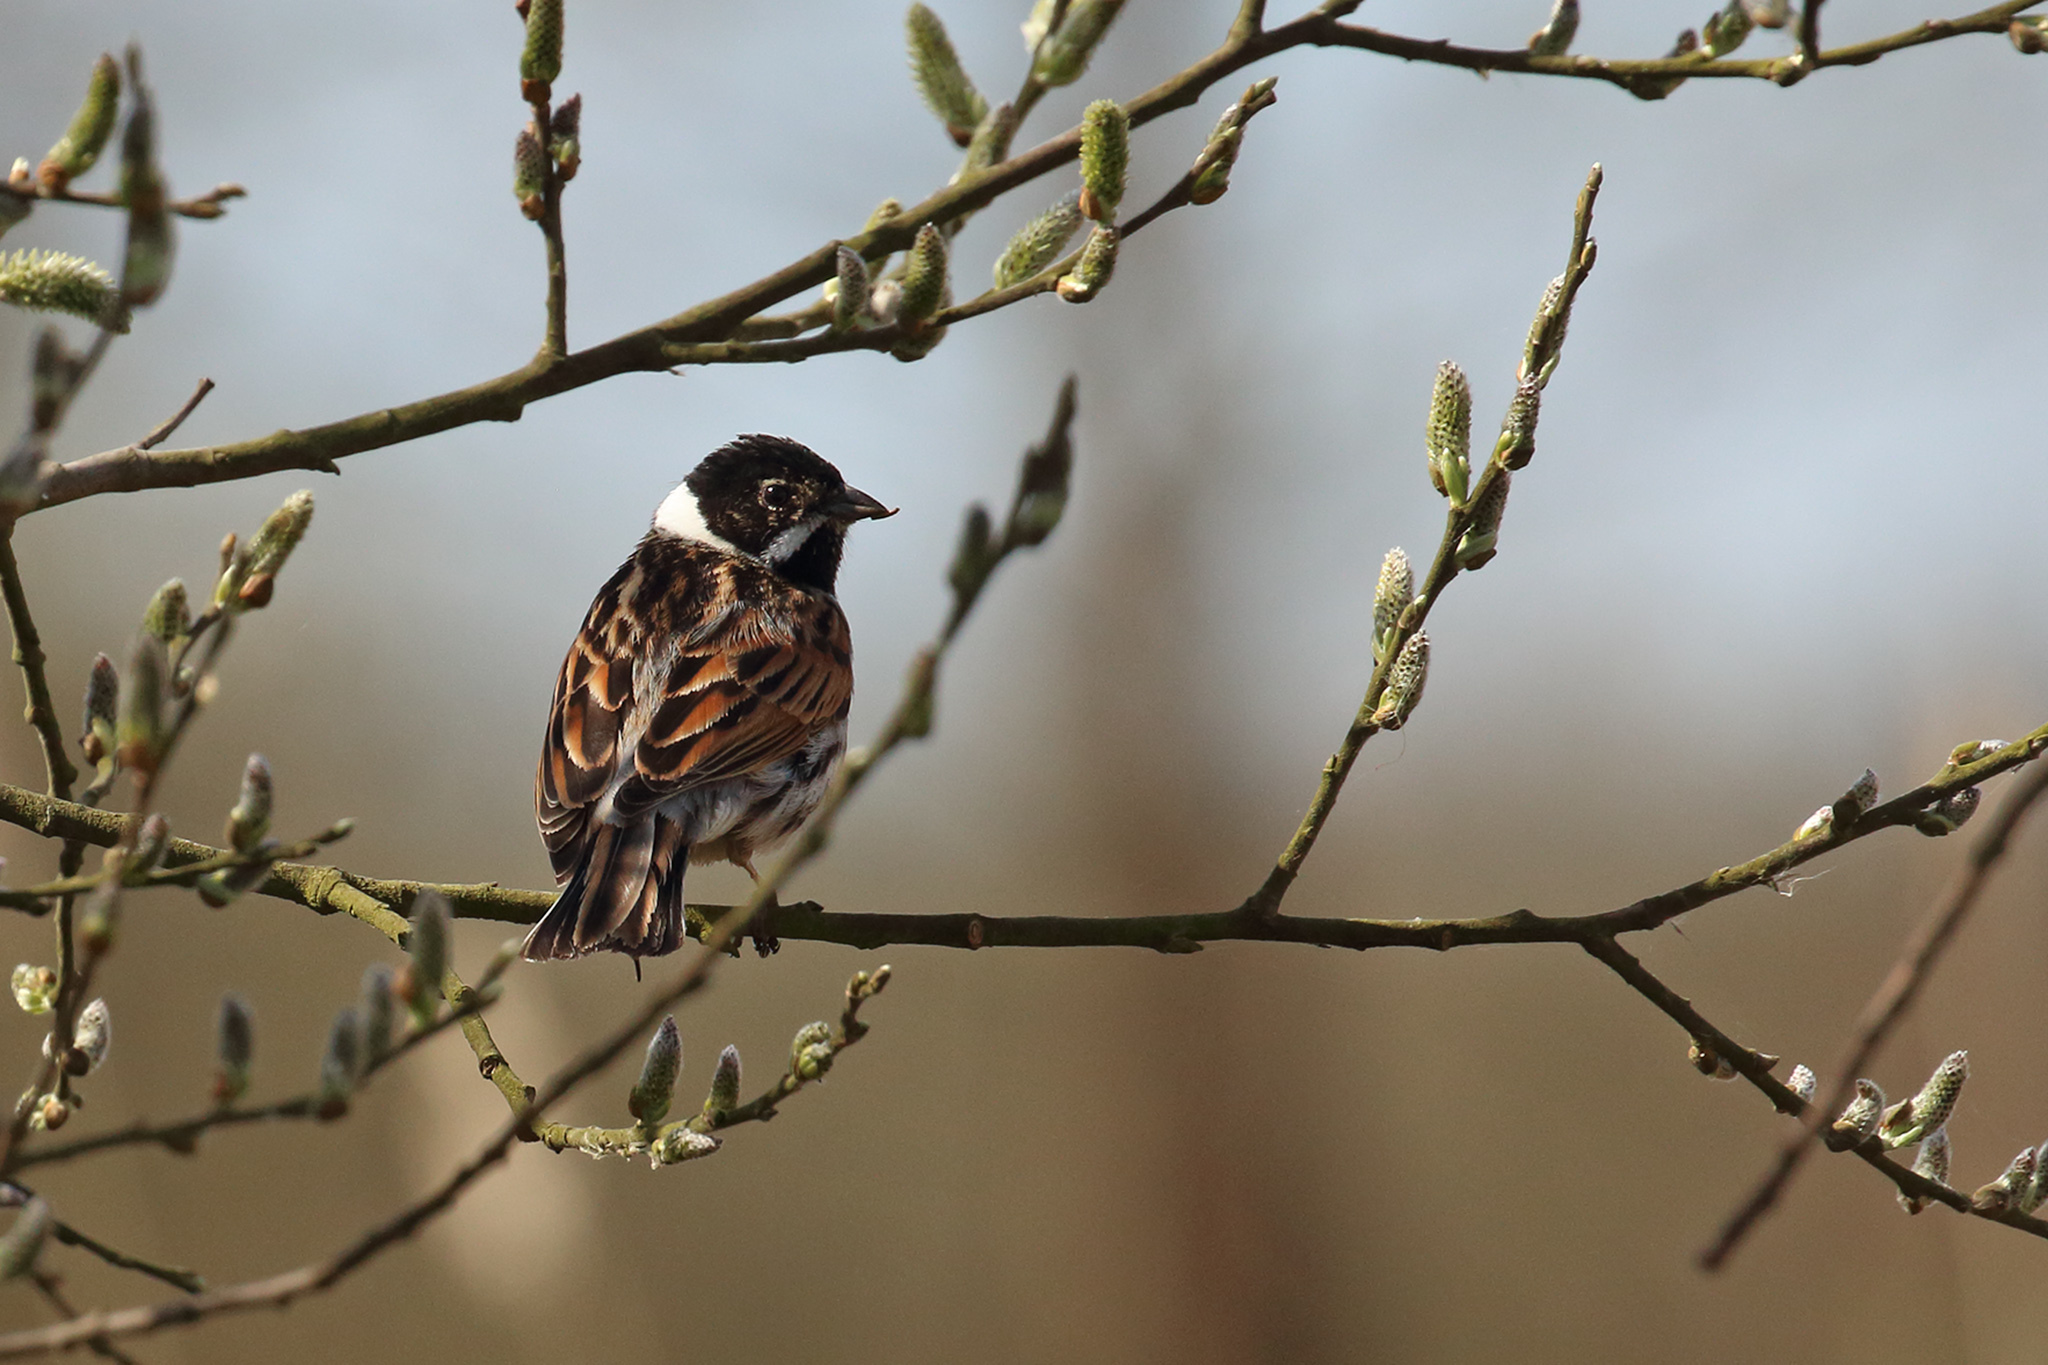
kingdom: Animalia
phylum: Chordata
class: Aves
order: Passeriformes
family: Emberizidae
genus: Emberiza
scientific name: Emberiza schoeniclus
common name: Reed bunting
